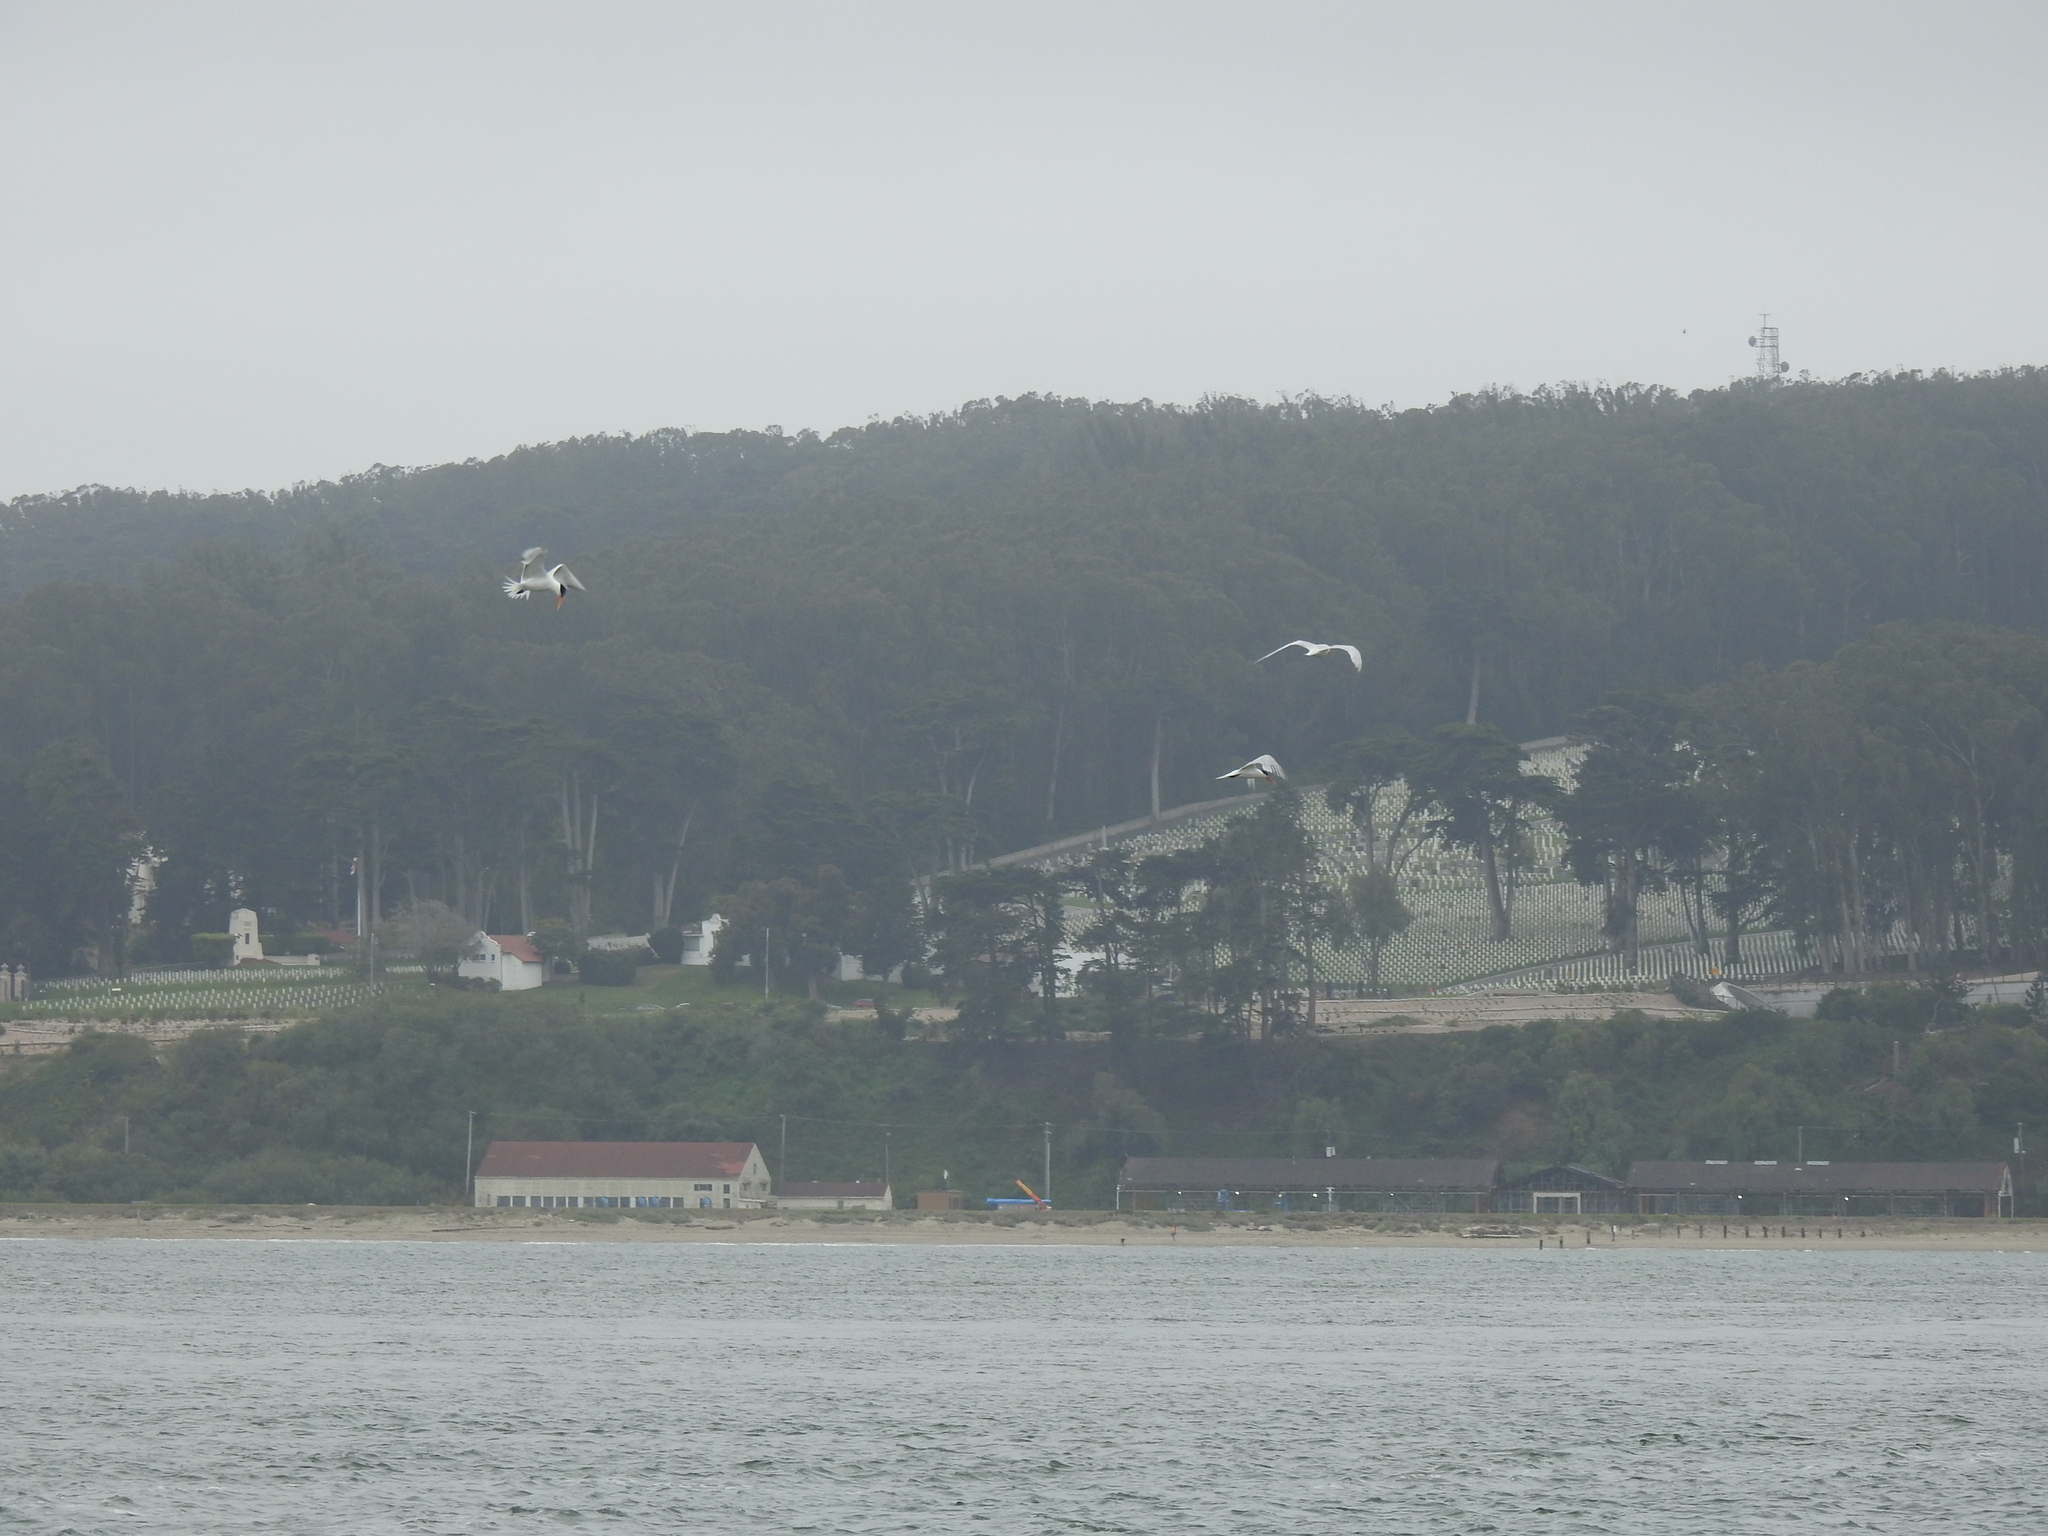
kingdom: Animalia
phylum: Chordata
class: Aves
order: Charadriiformes
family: Laridae
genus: Hydroprogne
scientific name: Hydroprogne caspia
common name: Caspian tern
